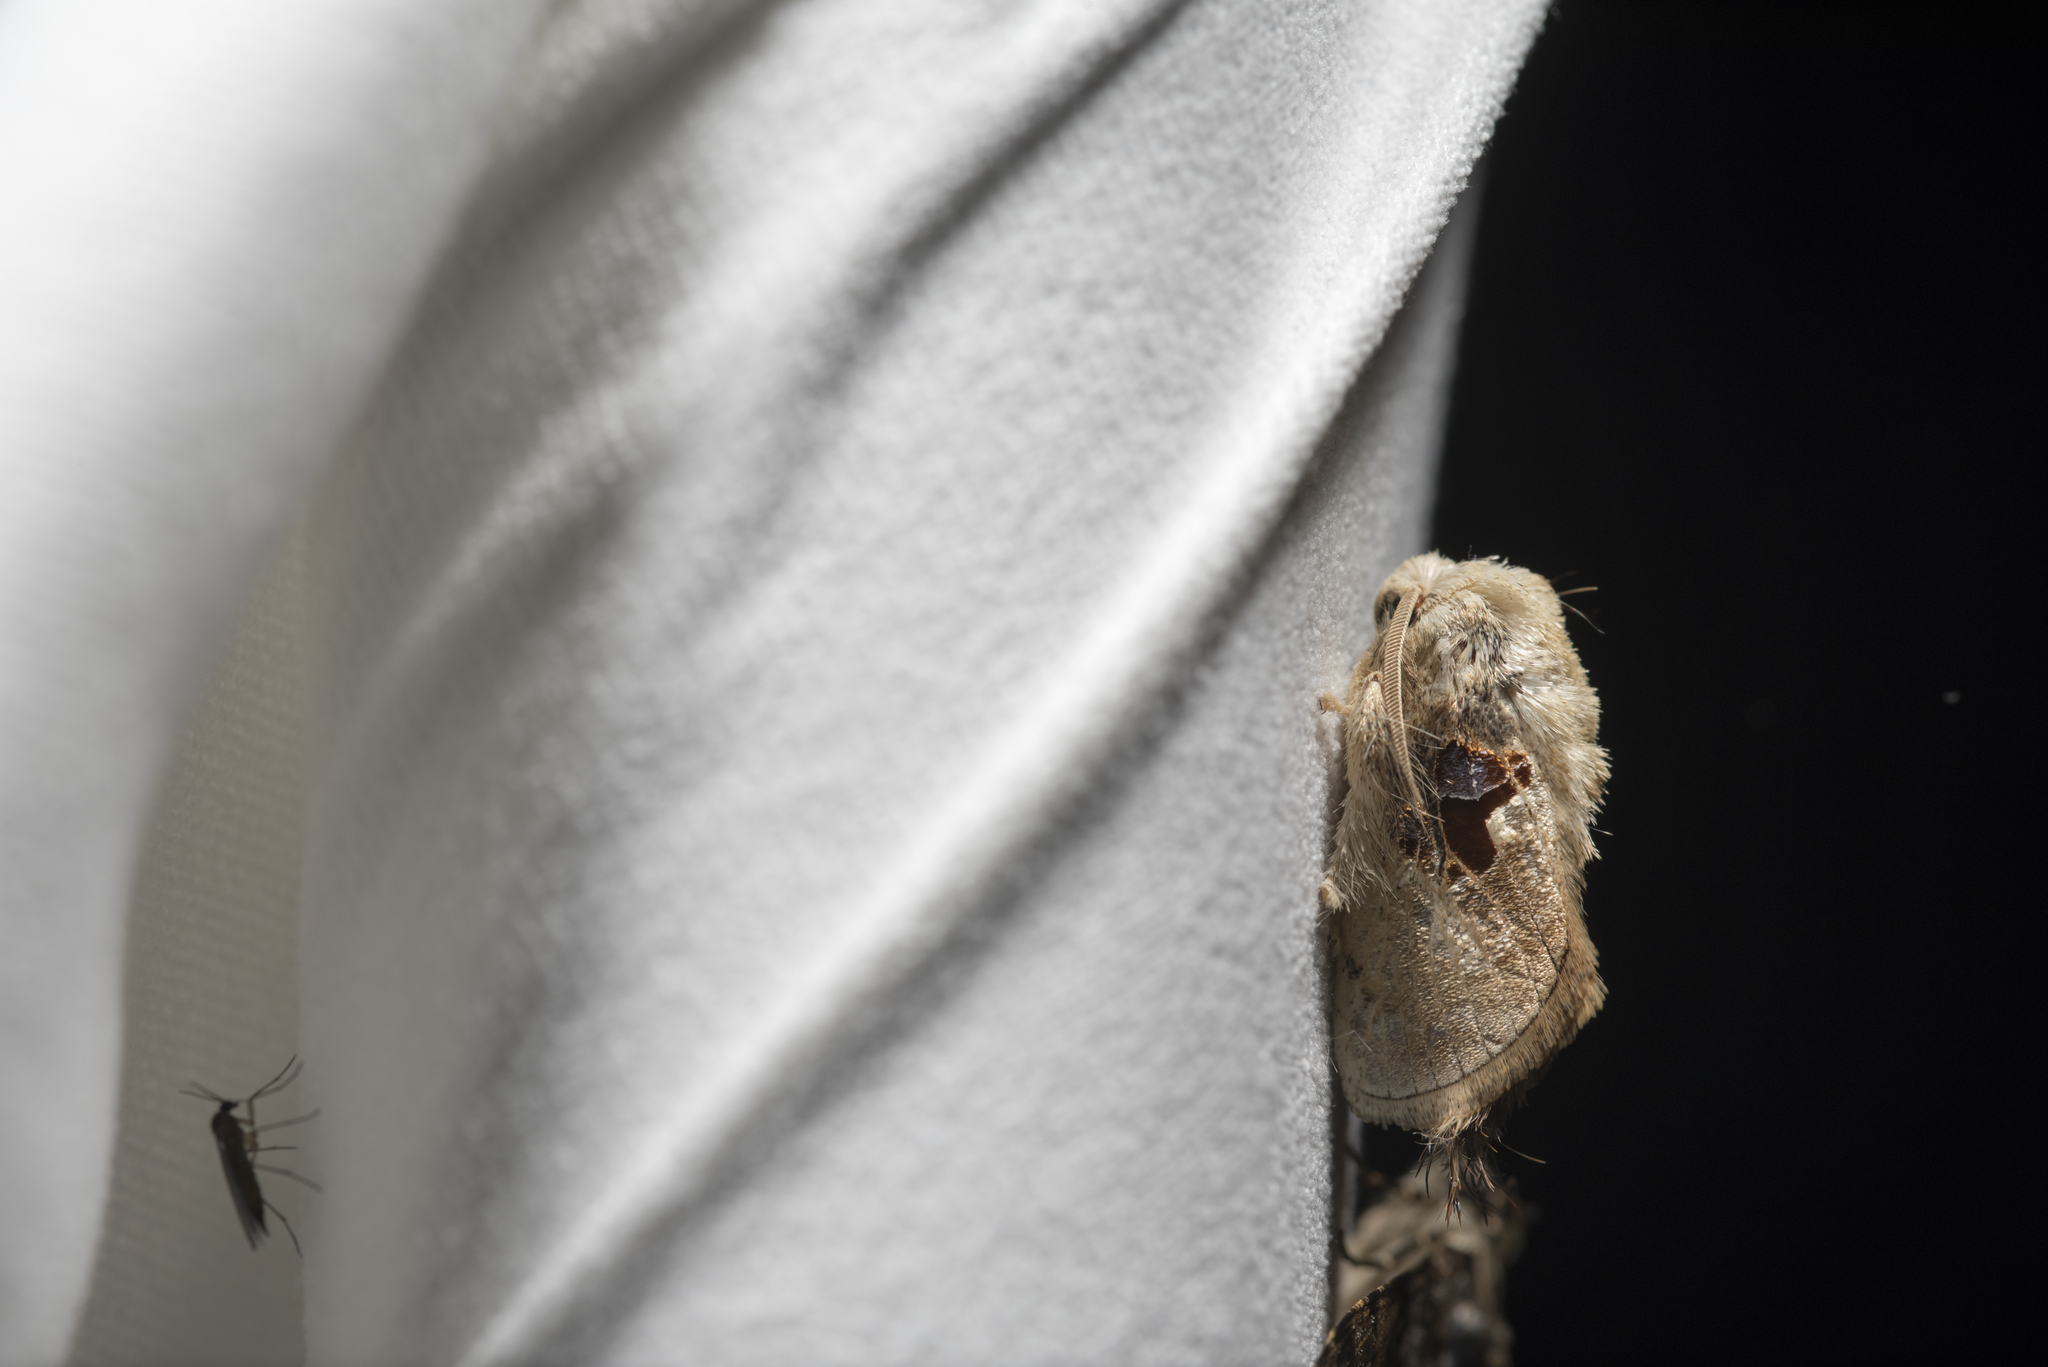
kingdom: Animalia
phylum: Arthropoda
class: Insecta
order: Lepidoptera
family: Limacodidae
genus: Chalcoscelides
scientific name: Chalcoscelides castaneipars
